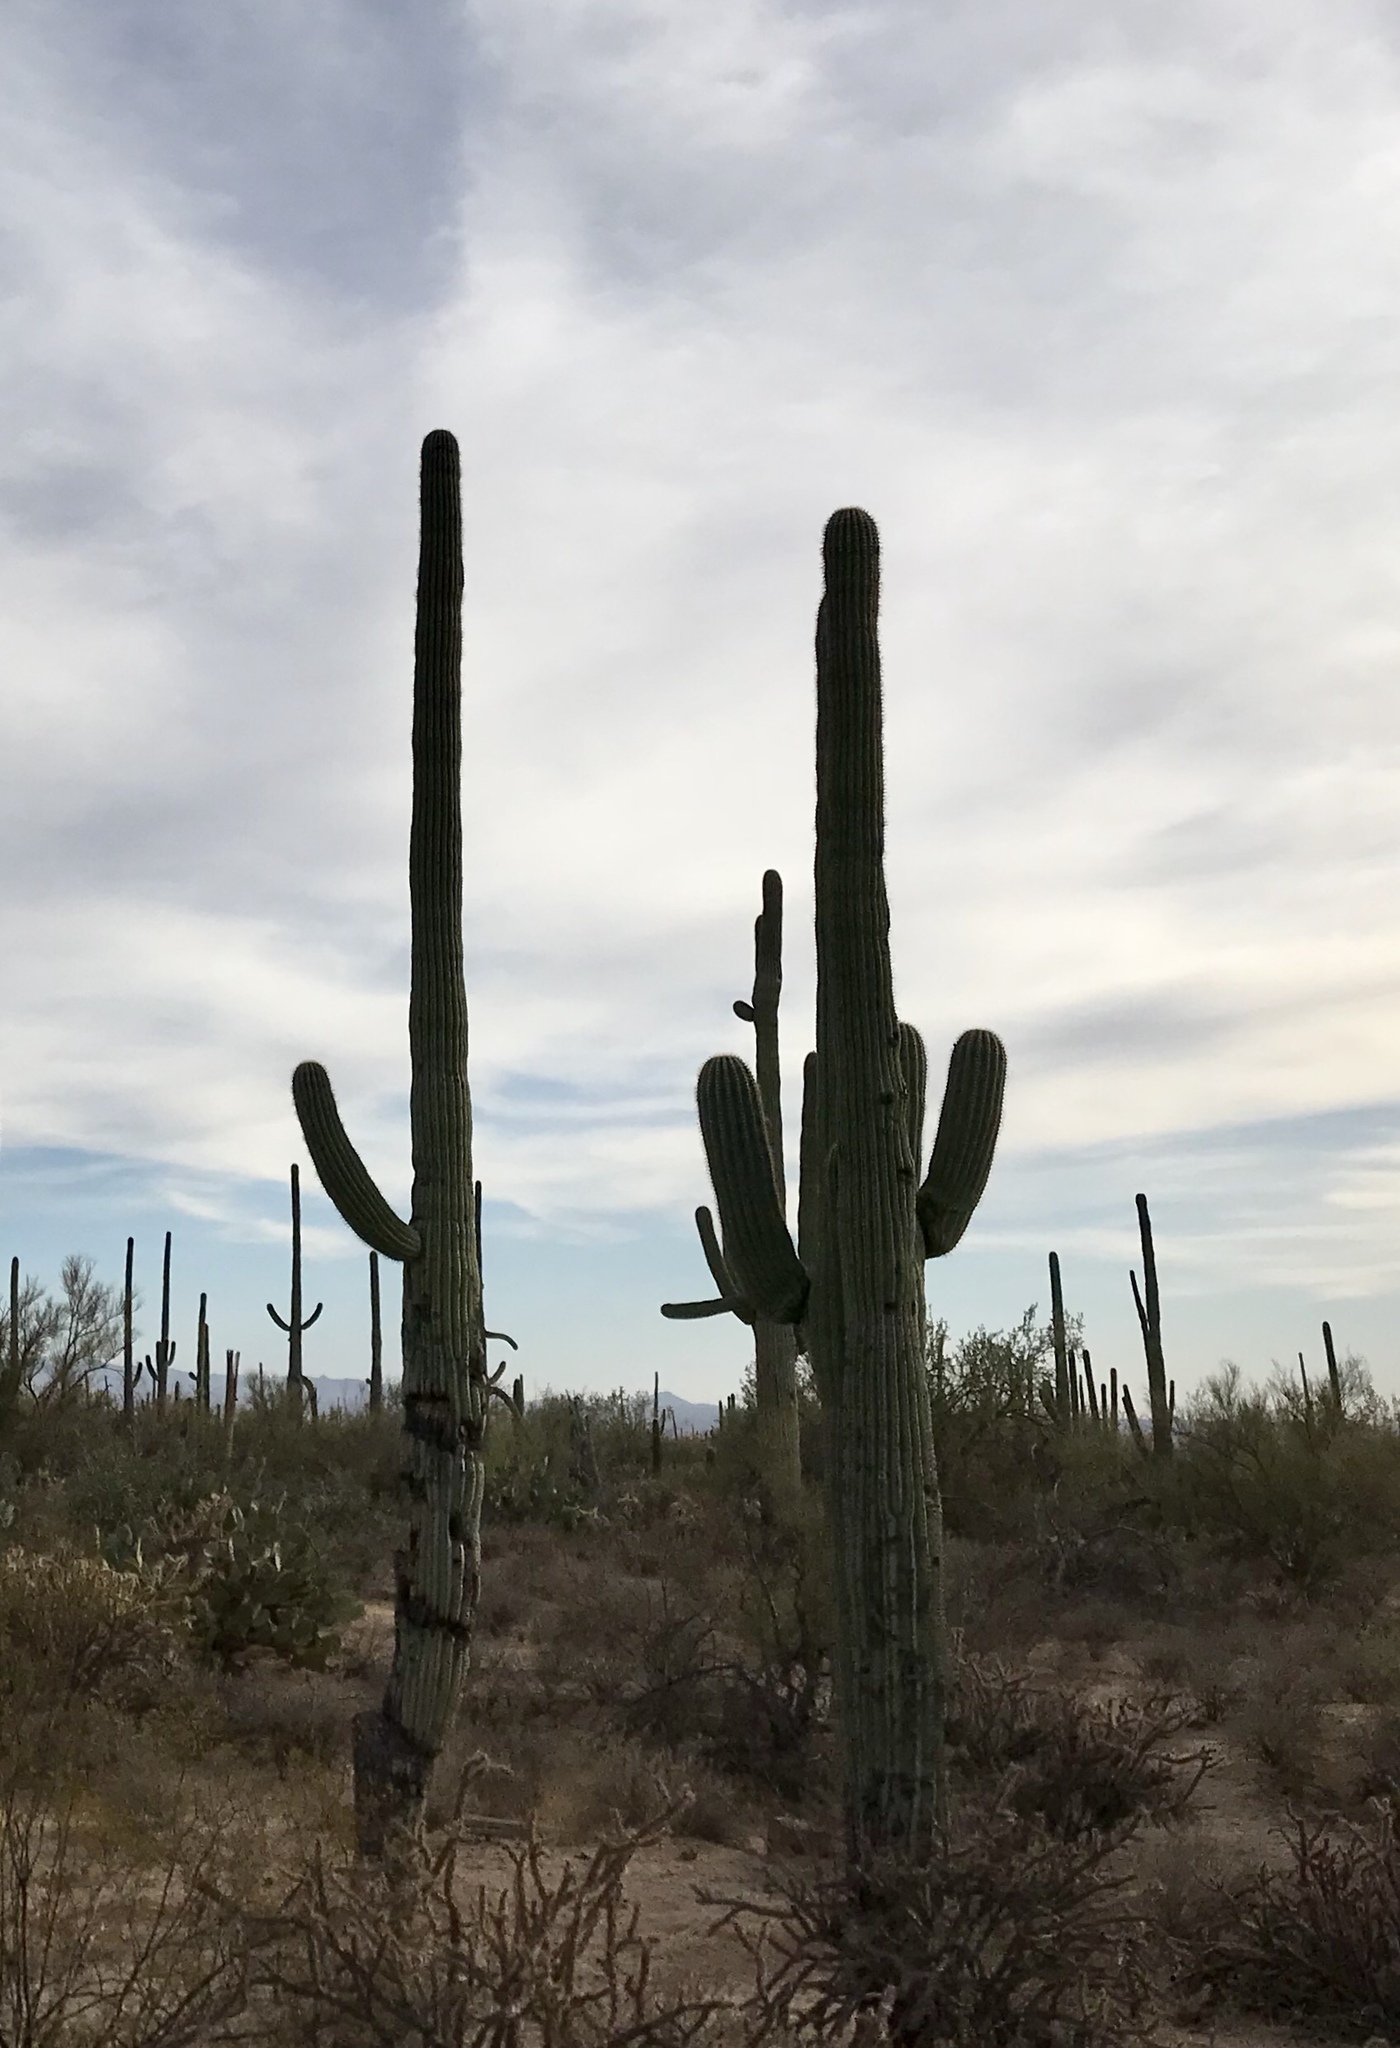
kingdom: Plantae
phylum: Tracheophyta
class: Magnoliopsida
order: Caryophyllales
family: Cactaceae
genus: Carnegiea
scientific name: Carnegiea gigantea
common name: Saguaro
